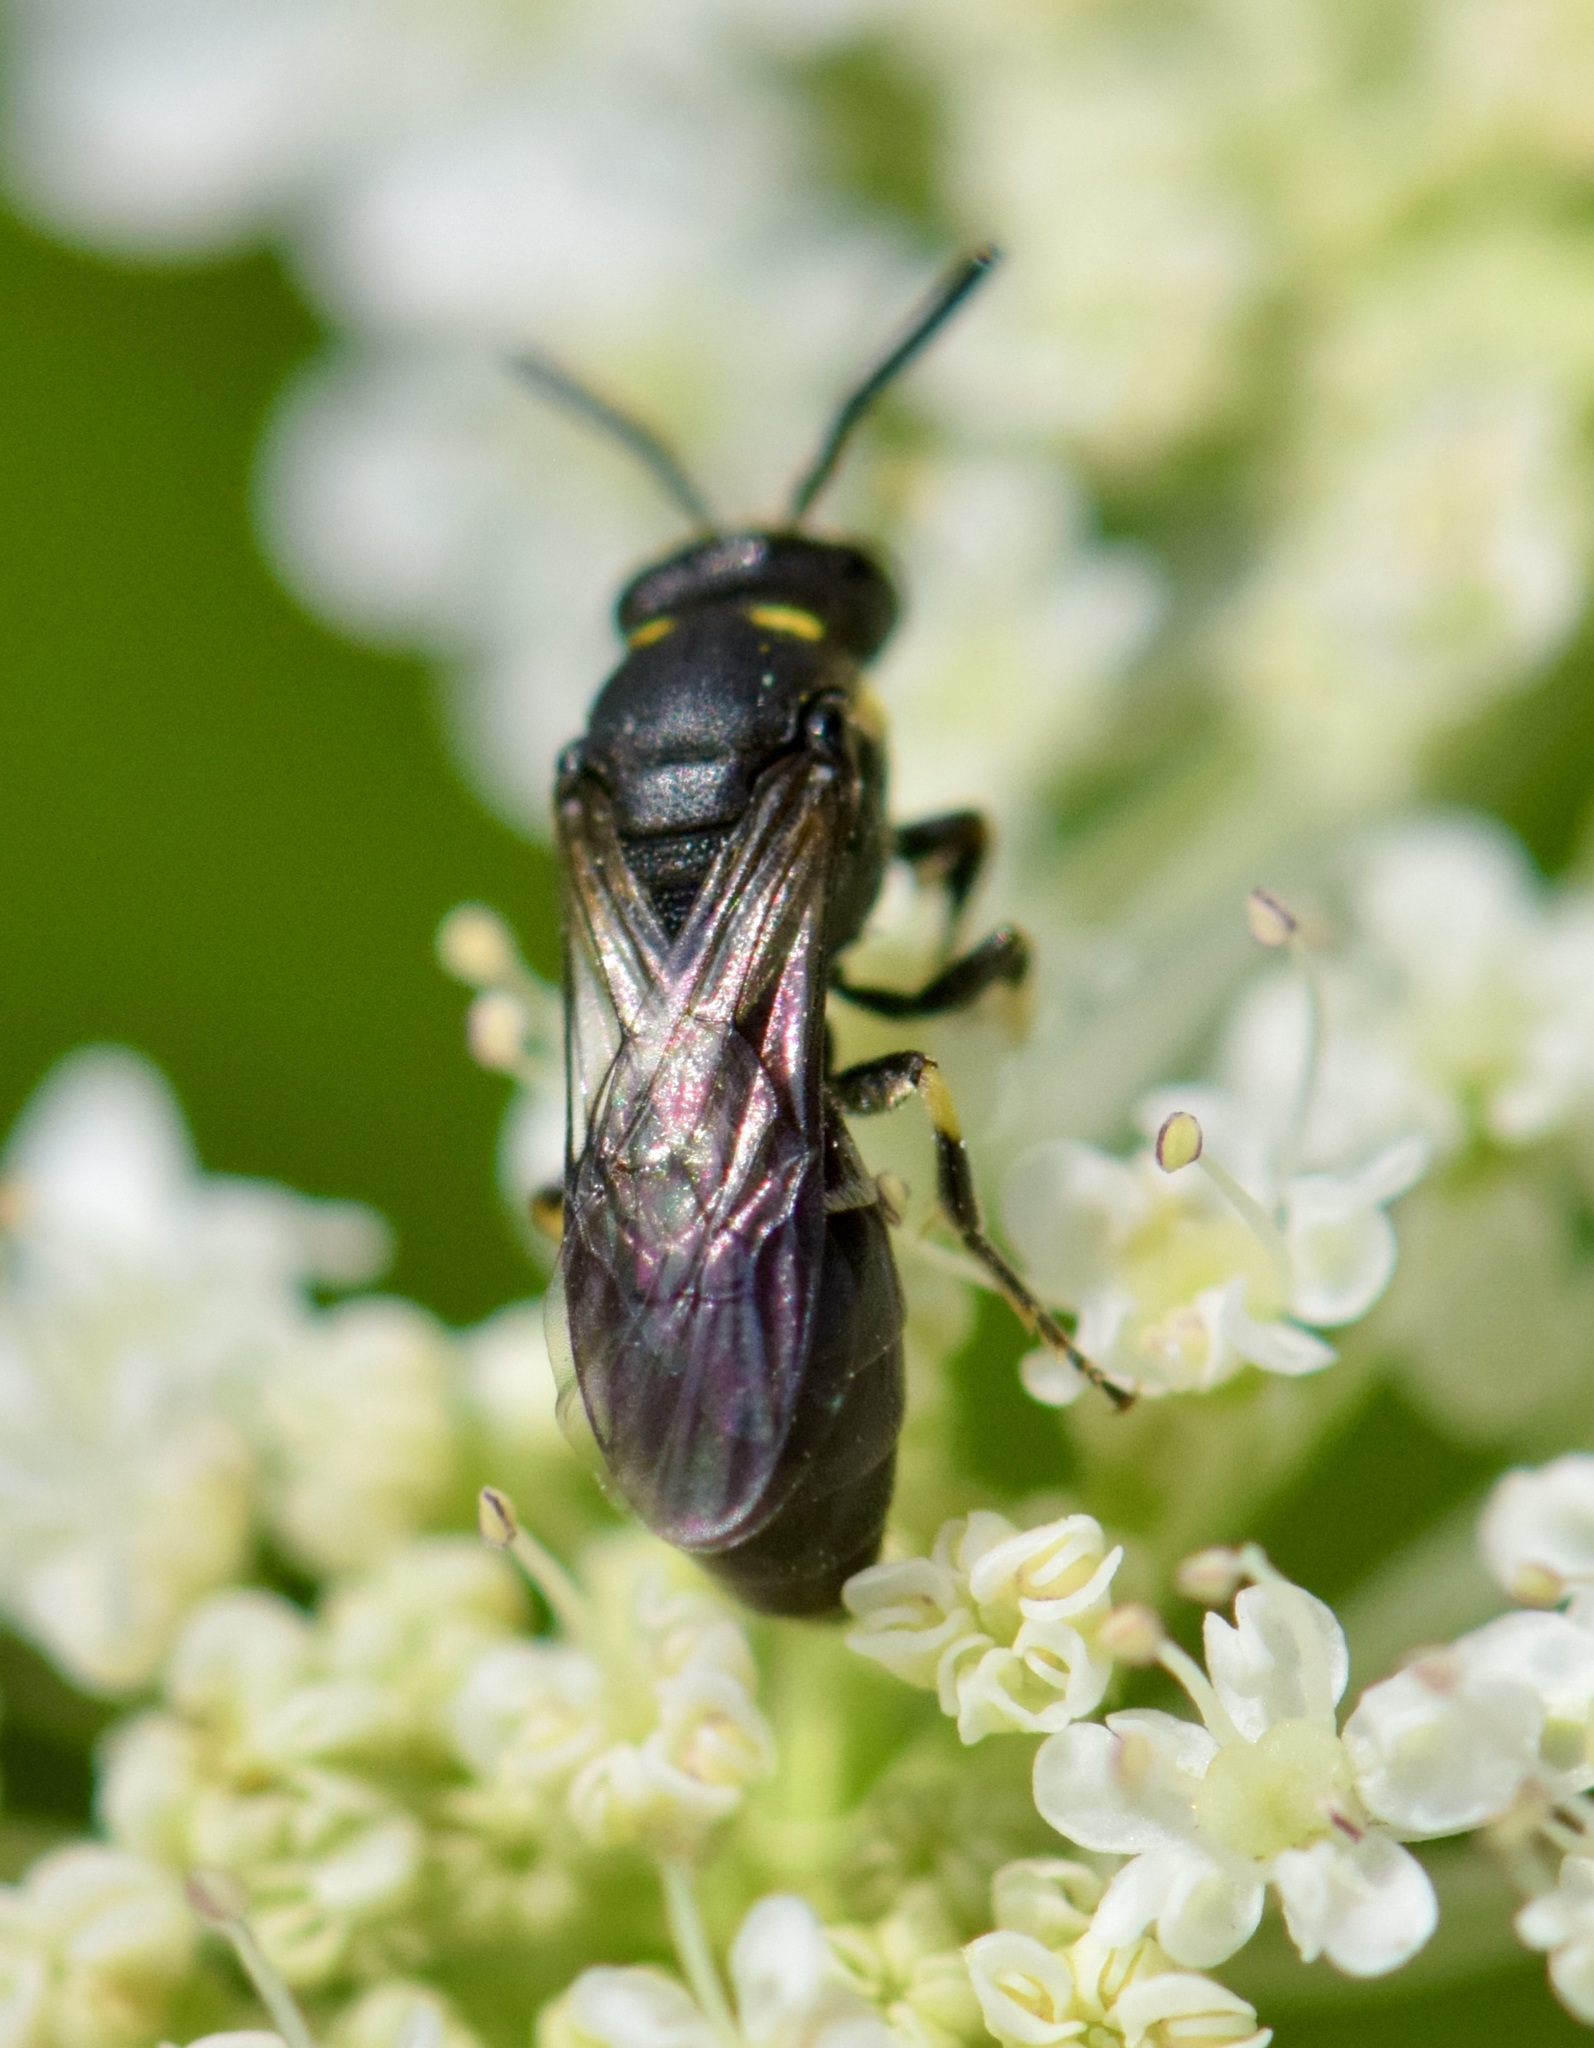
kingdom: Animalia
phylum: Arthropoda
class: Insecta
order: Hymenoptera
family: Colletidae
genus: Hylaeus
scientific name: Hylaeus modestus
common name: Yellow-faced bee
